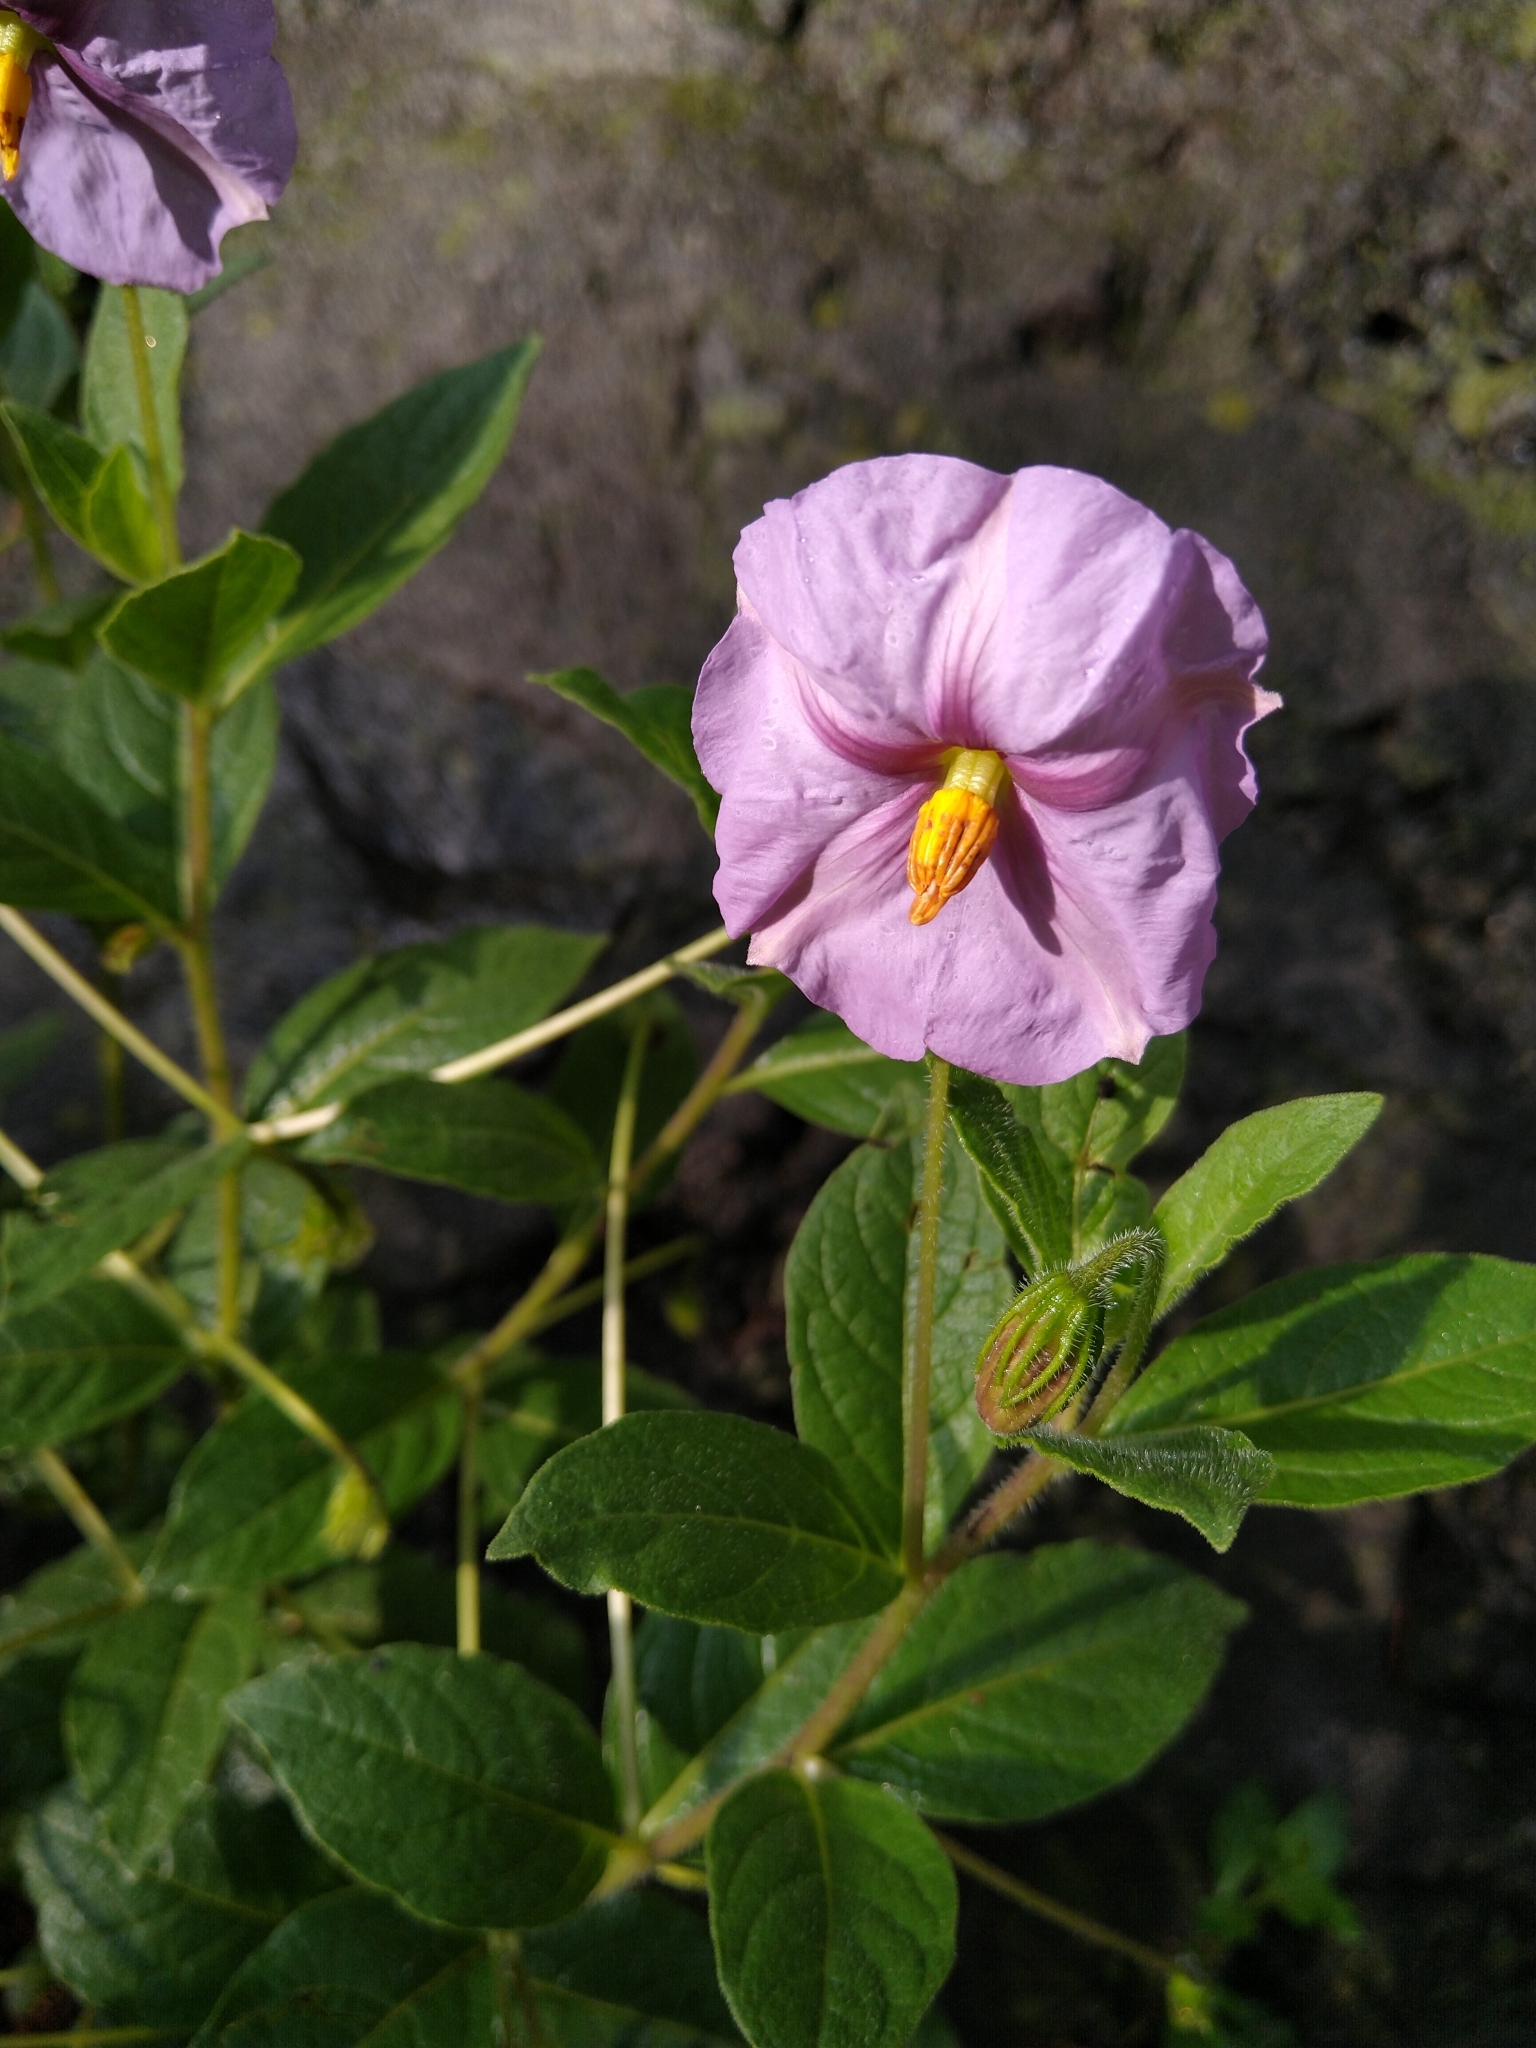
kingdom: Plantae
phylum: Tracheophyta
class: Magnoliopsida
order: Solanales
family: Solanaceae
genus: Lycianthes
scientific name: Lycianthes moziniana
